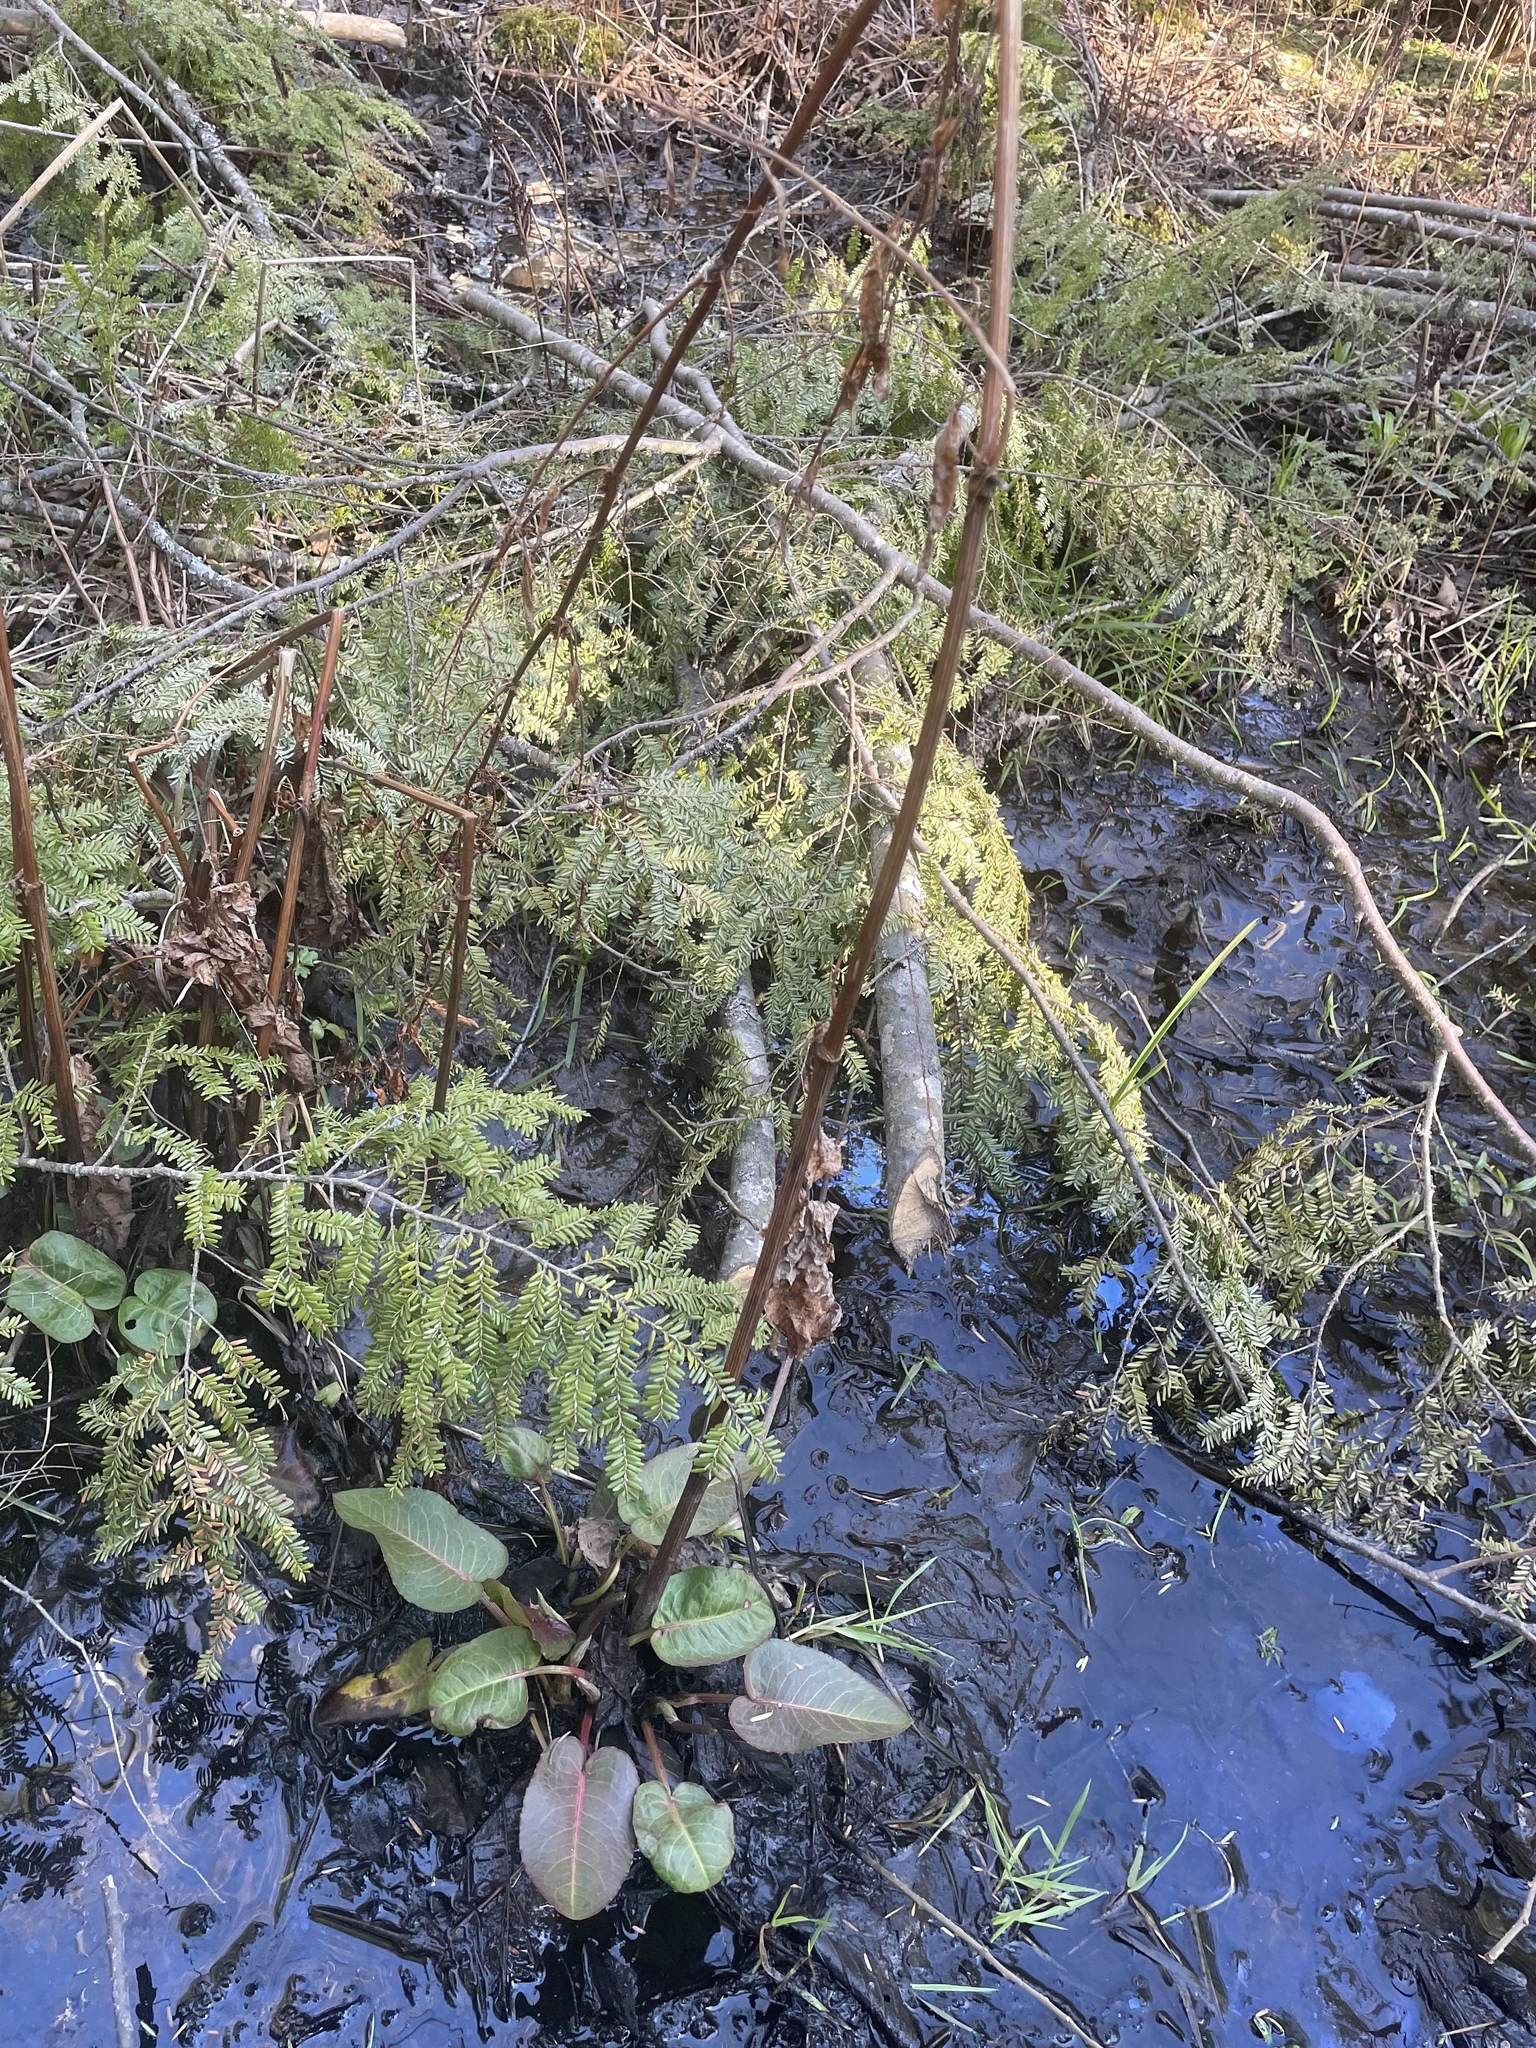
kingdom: Plantae
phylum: Tracheophyta
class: Magnoliopsida
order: Caryophyllales
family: Polygonaceae
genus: Rumex
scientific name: Rumex obtusifolius
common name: Bitter dock
